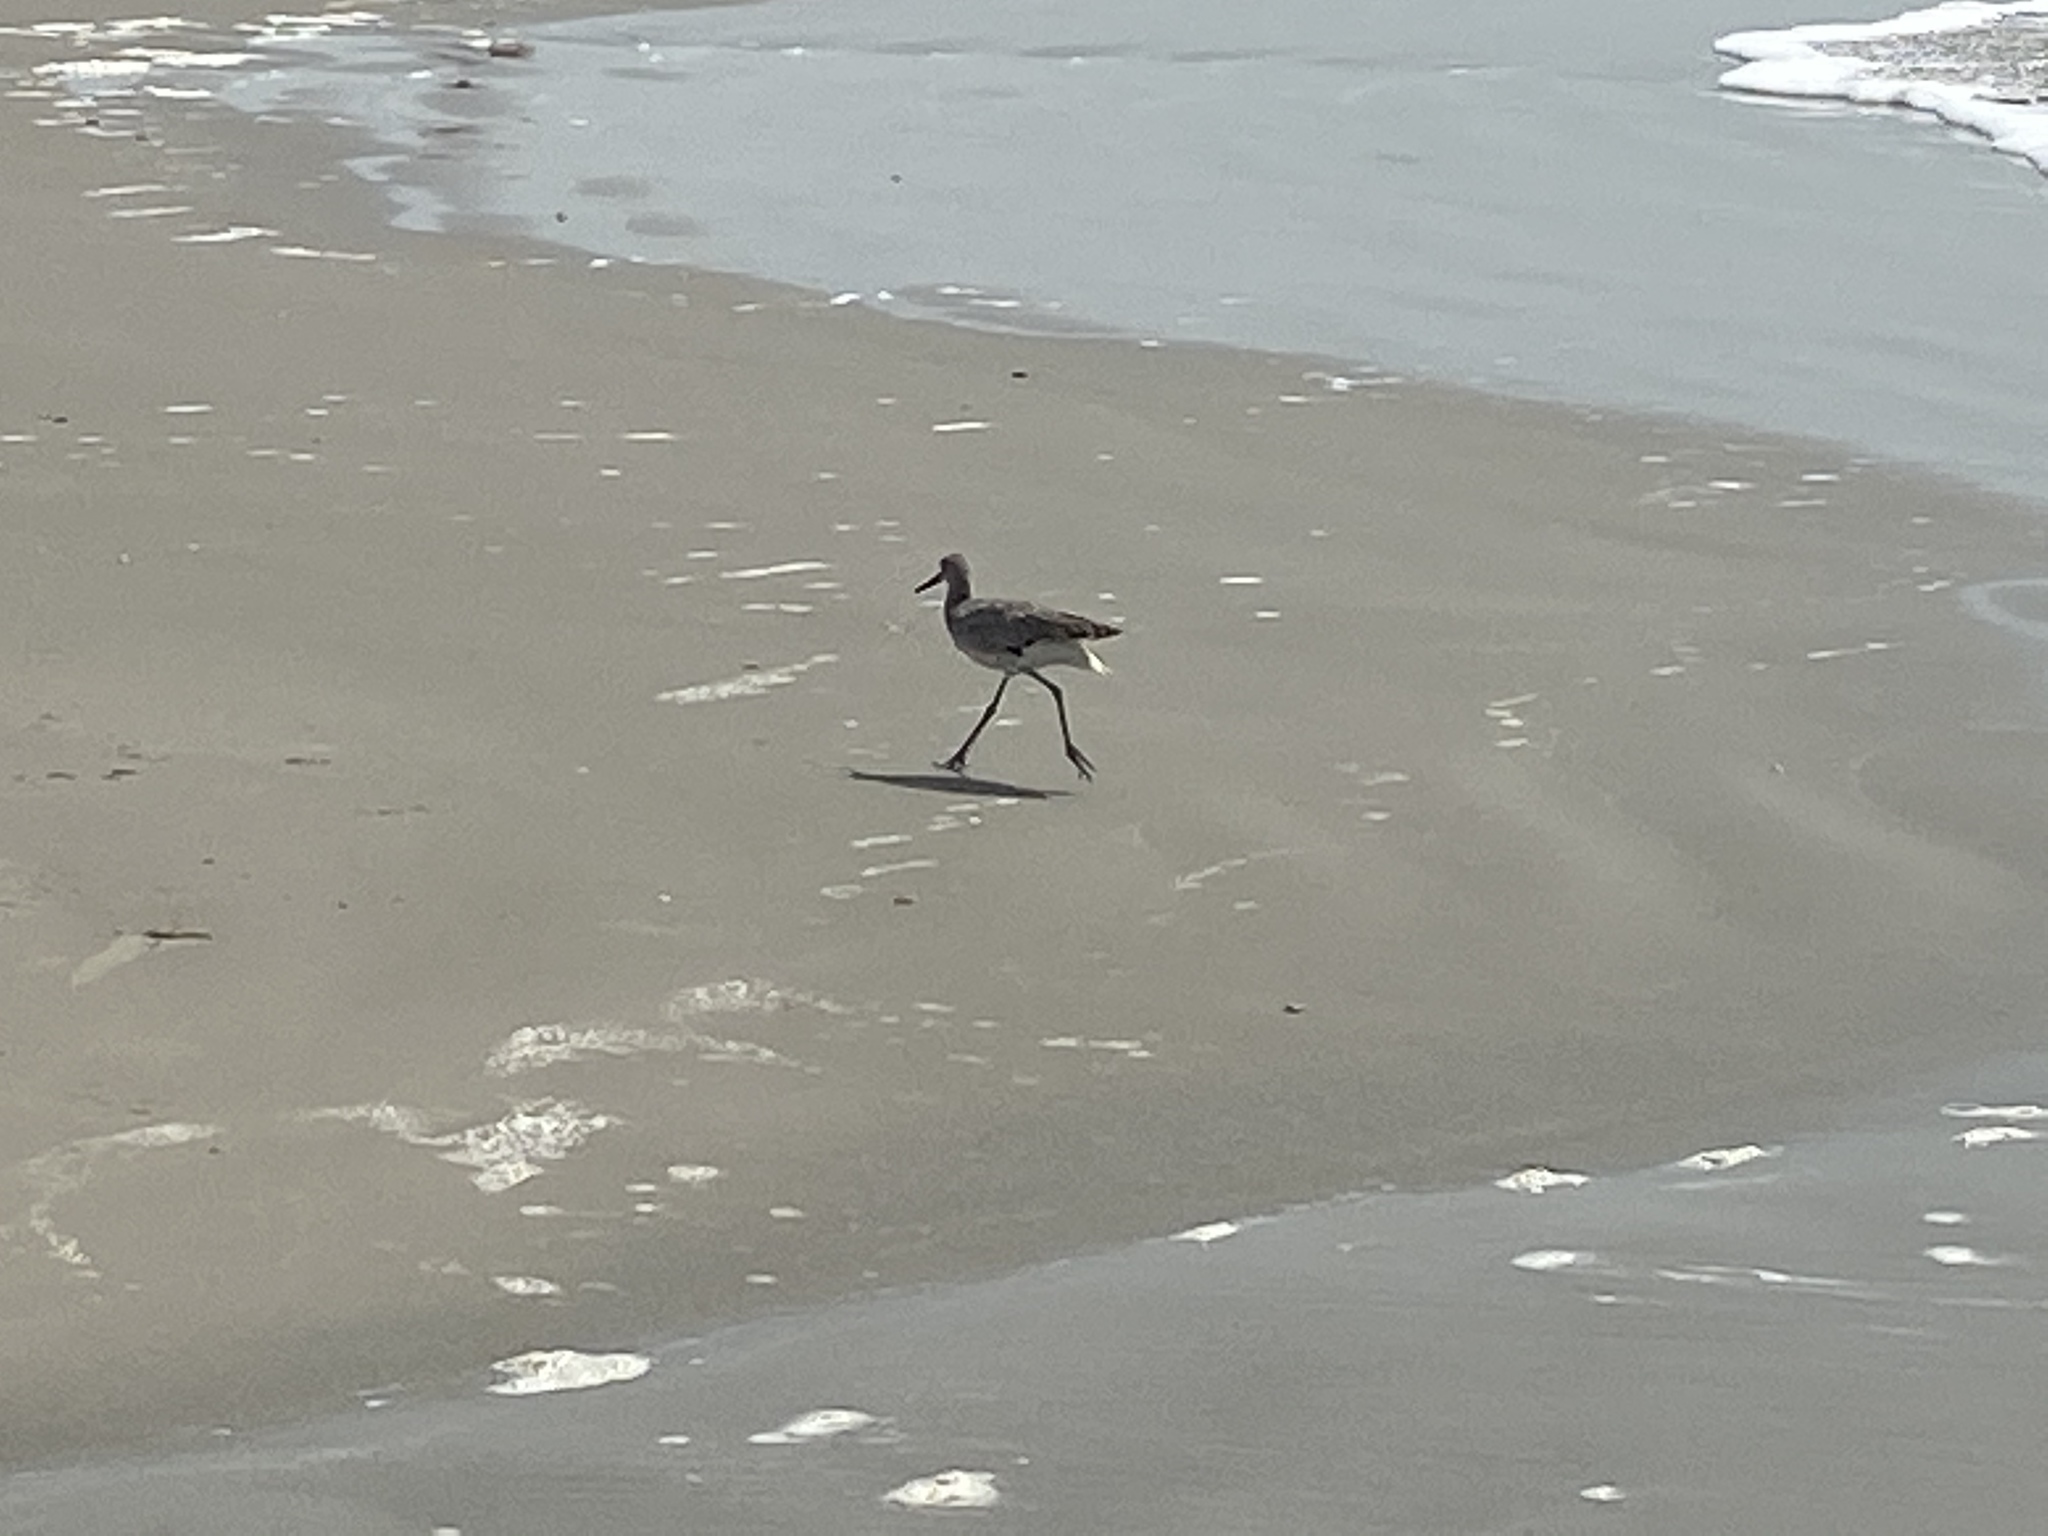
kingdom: Animalia
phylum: Chordata
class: Aves
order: Charadriiformes
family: Scolopacidae
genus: Tringa
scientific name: Tringa semipalmata
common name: Willet
